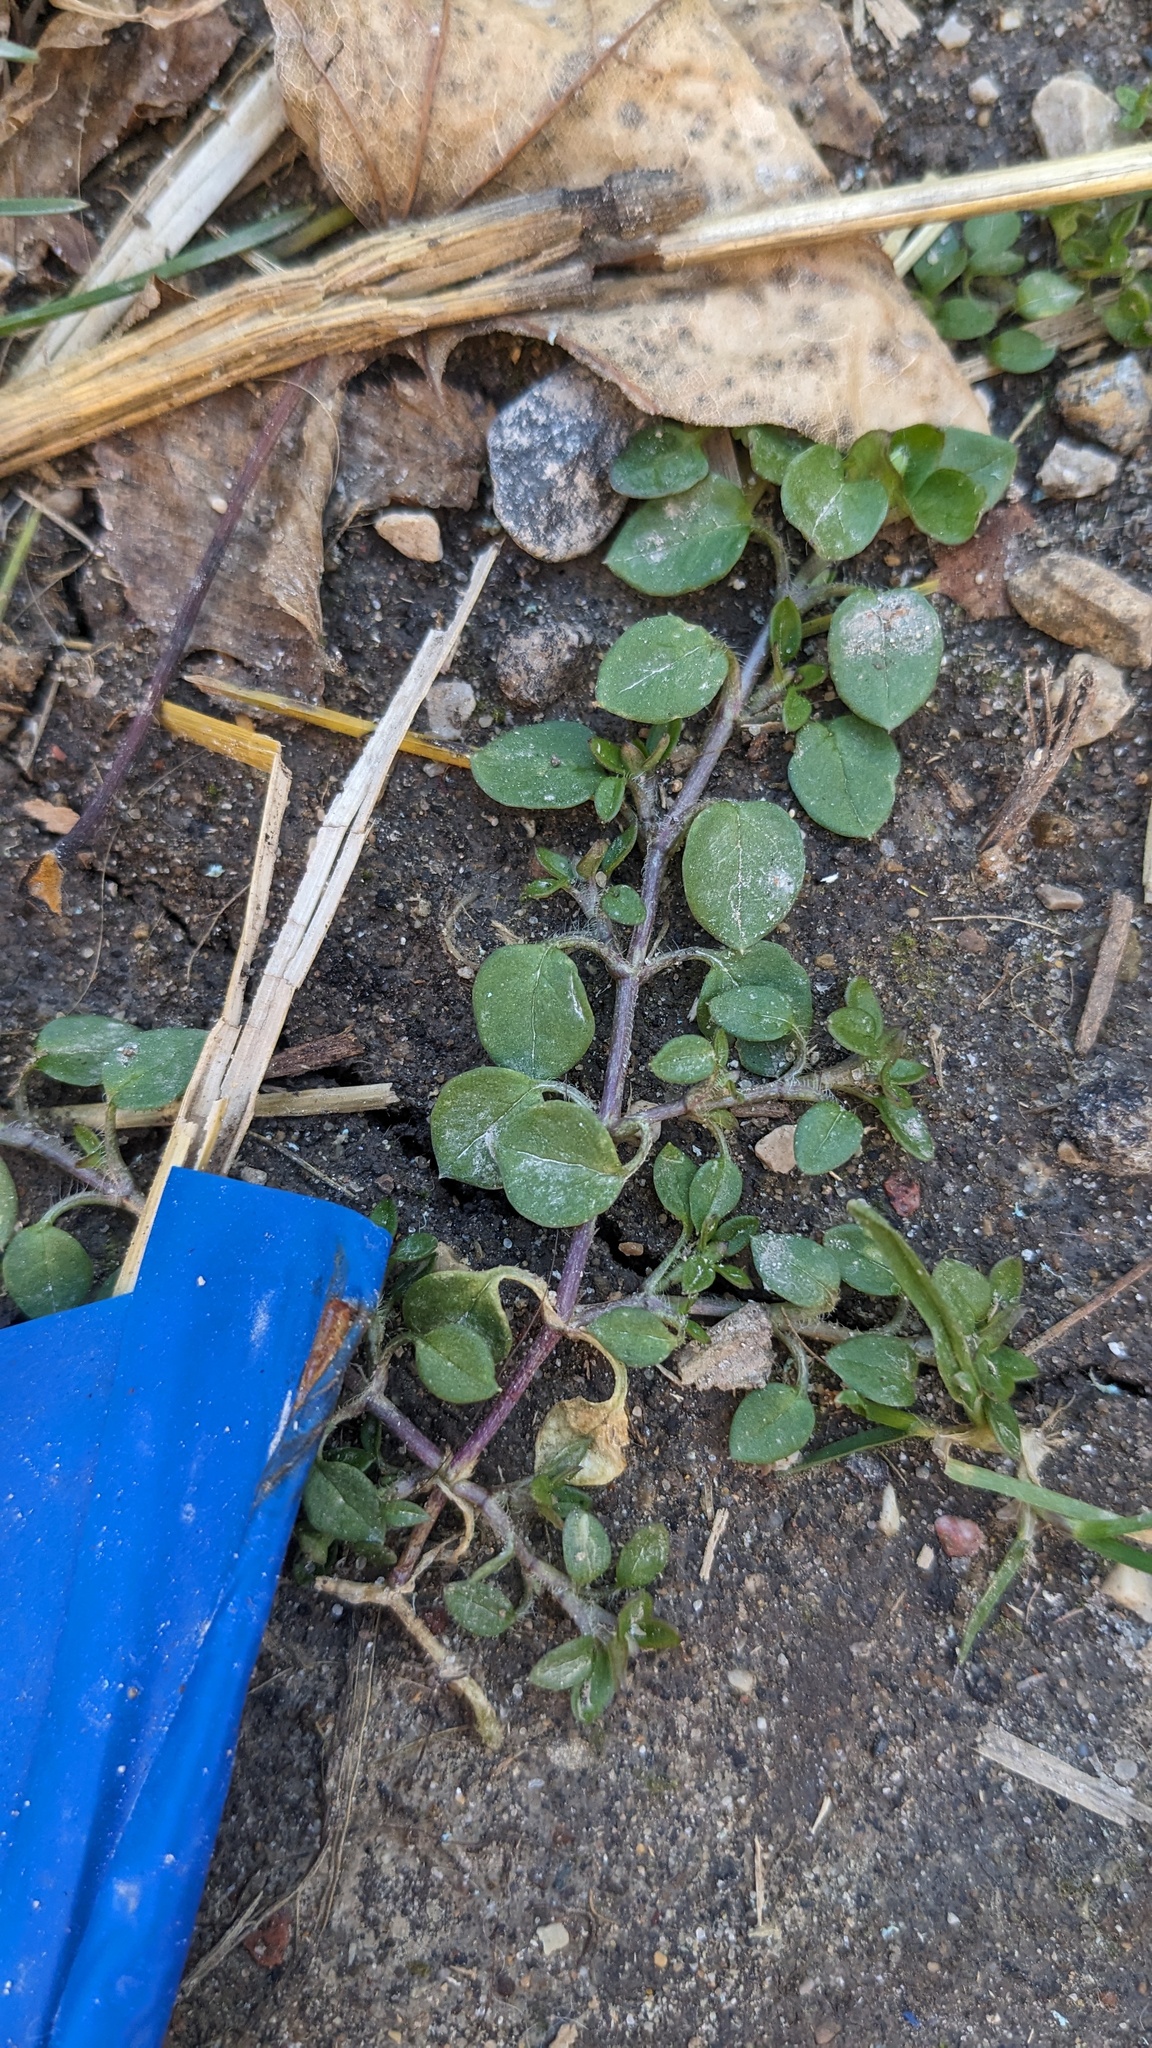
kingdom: Plantae
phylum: Tracheophyta
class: Magnoliopsida
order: Caryophyllales
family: Caryophyllaceae
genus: Stellaria
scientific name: Stellaria media
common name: Common chickweed
